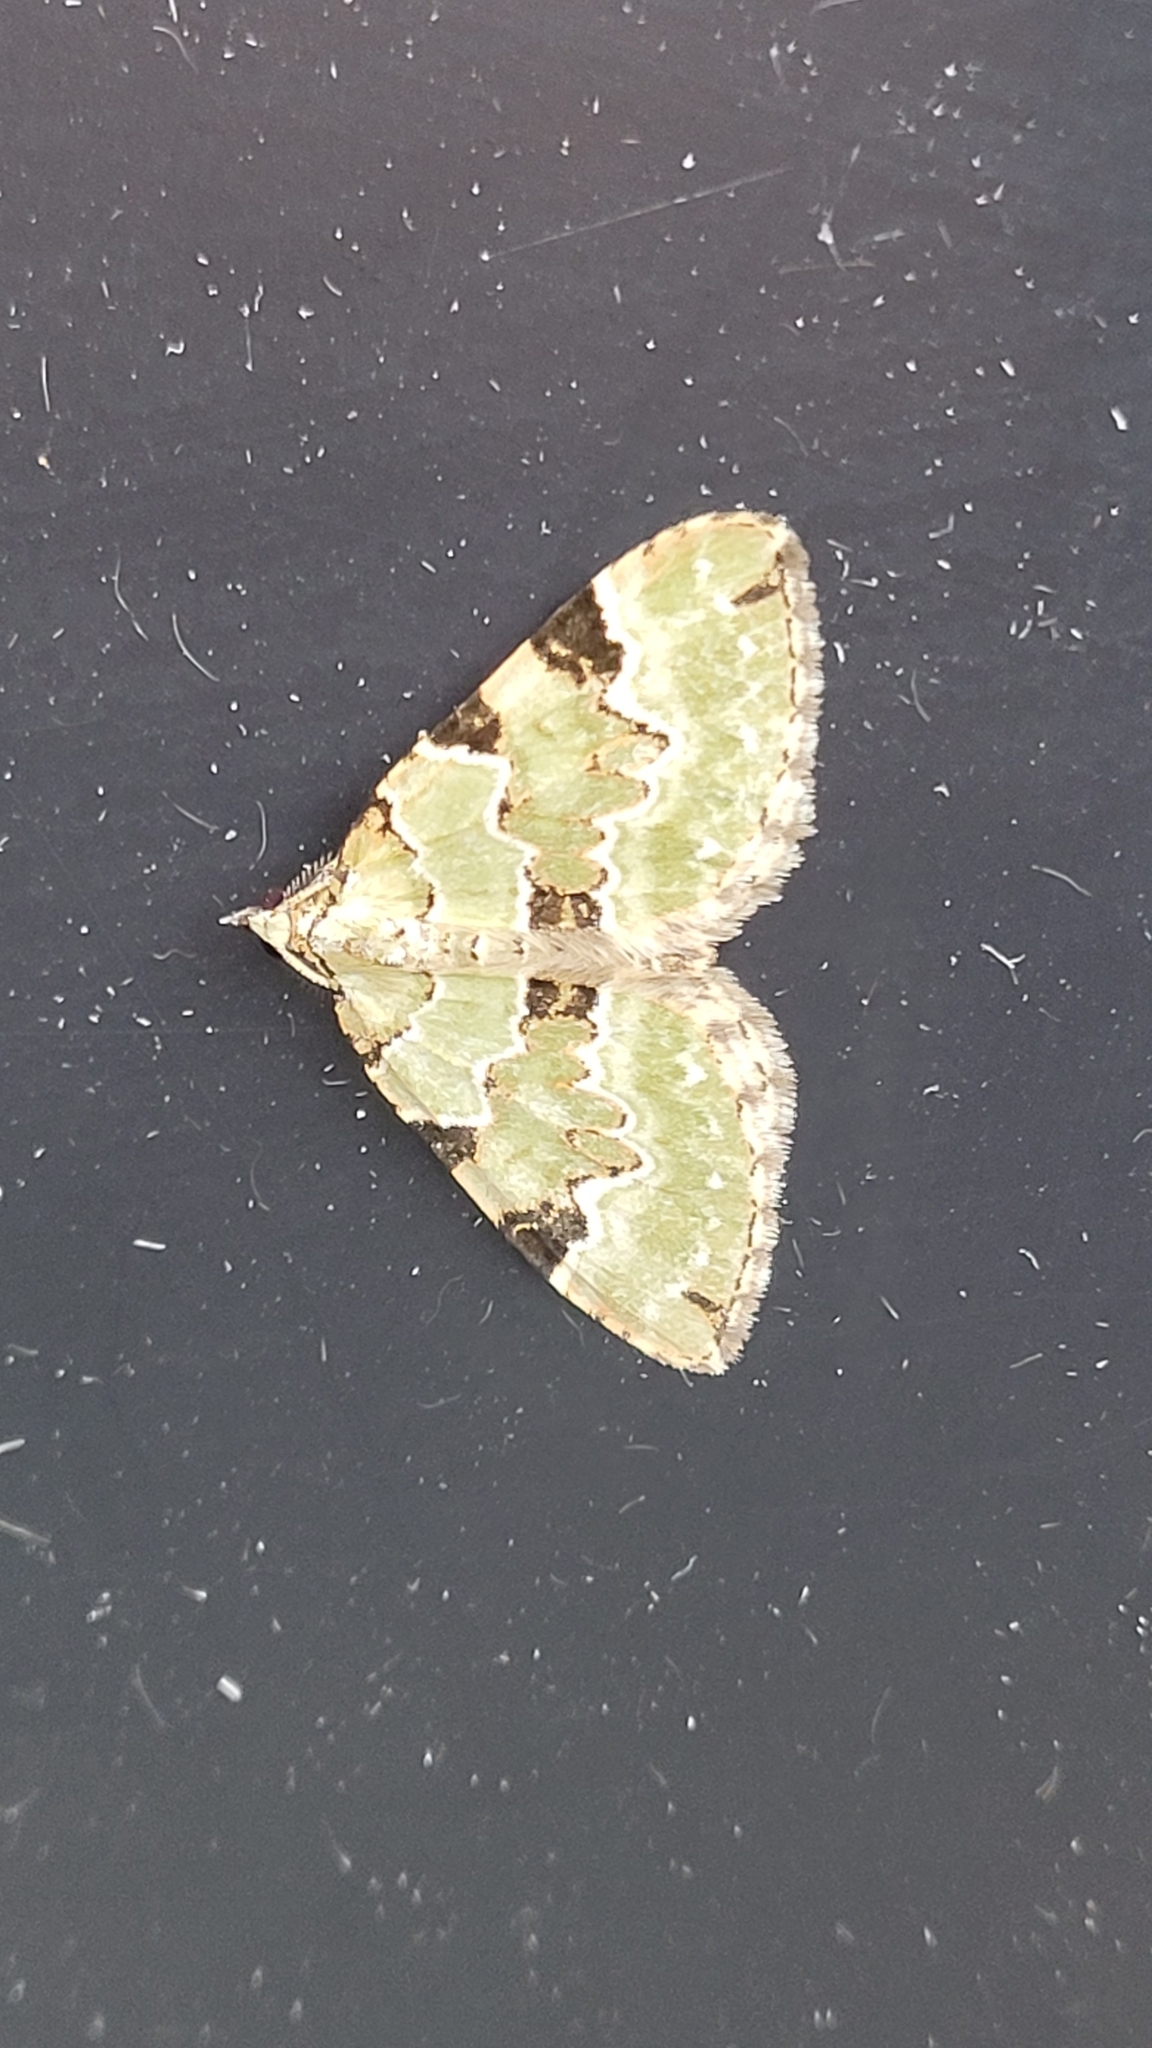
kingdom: Animalia
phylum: Arthropoda
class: Insecta
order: Lepidoptera
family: Geometridae
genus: Colostygia
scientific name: Colostygia pectinataria
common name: Green carpet
